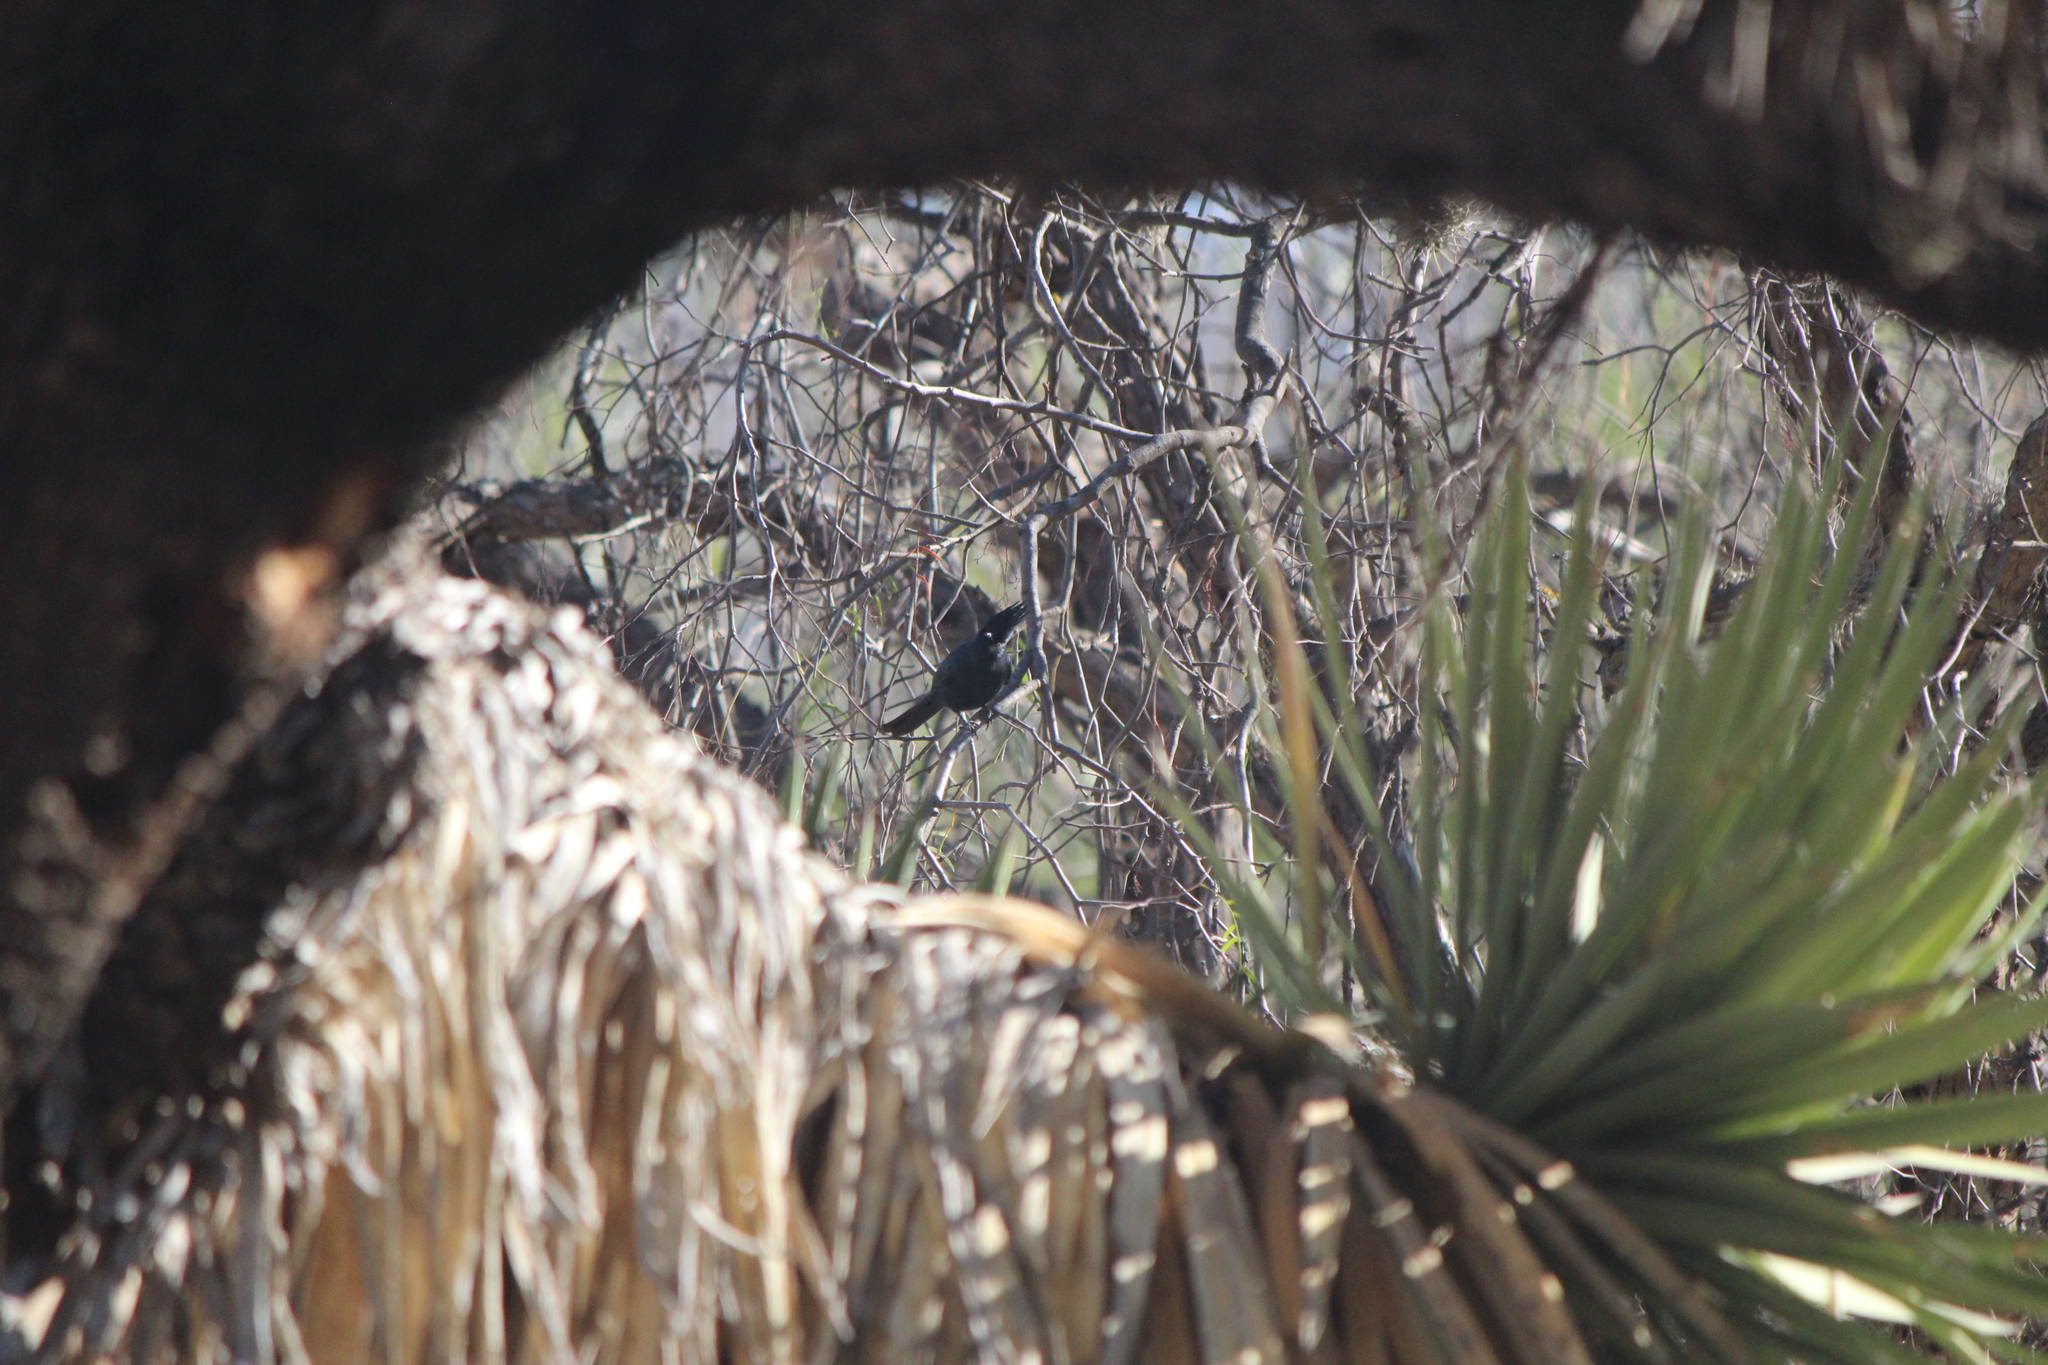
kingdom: Animalia
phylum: Chordata
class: Aves
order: Passeriformes
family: Ptilogonatidae
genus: Phainopepla
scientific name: Phainopepla nitens
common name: Phainopepla
